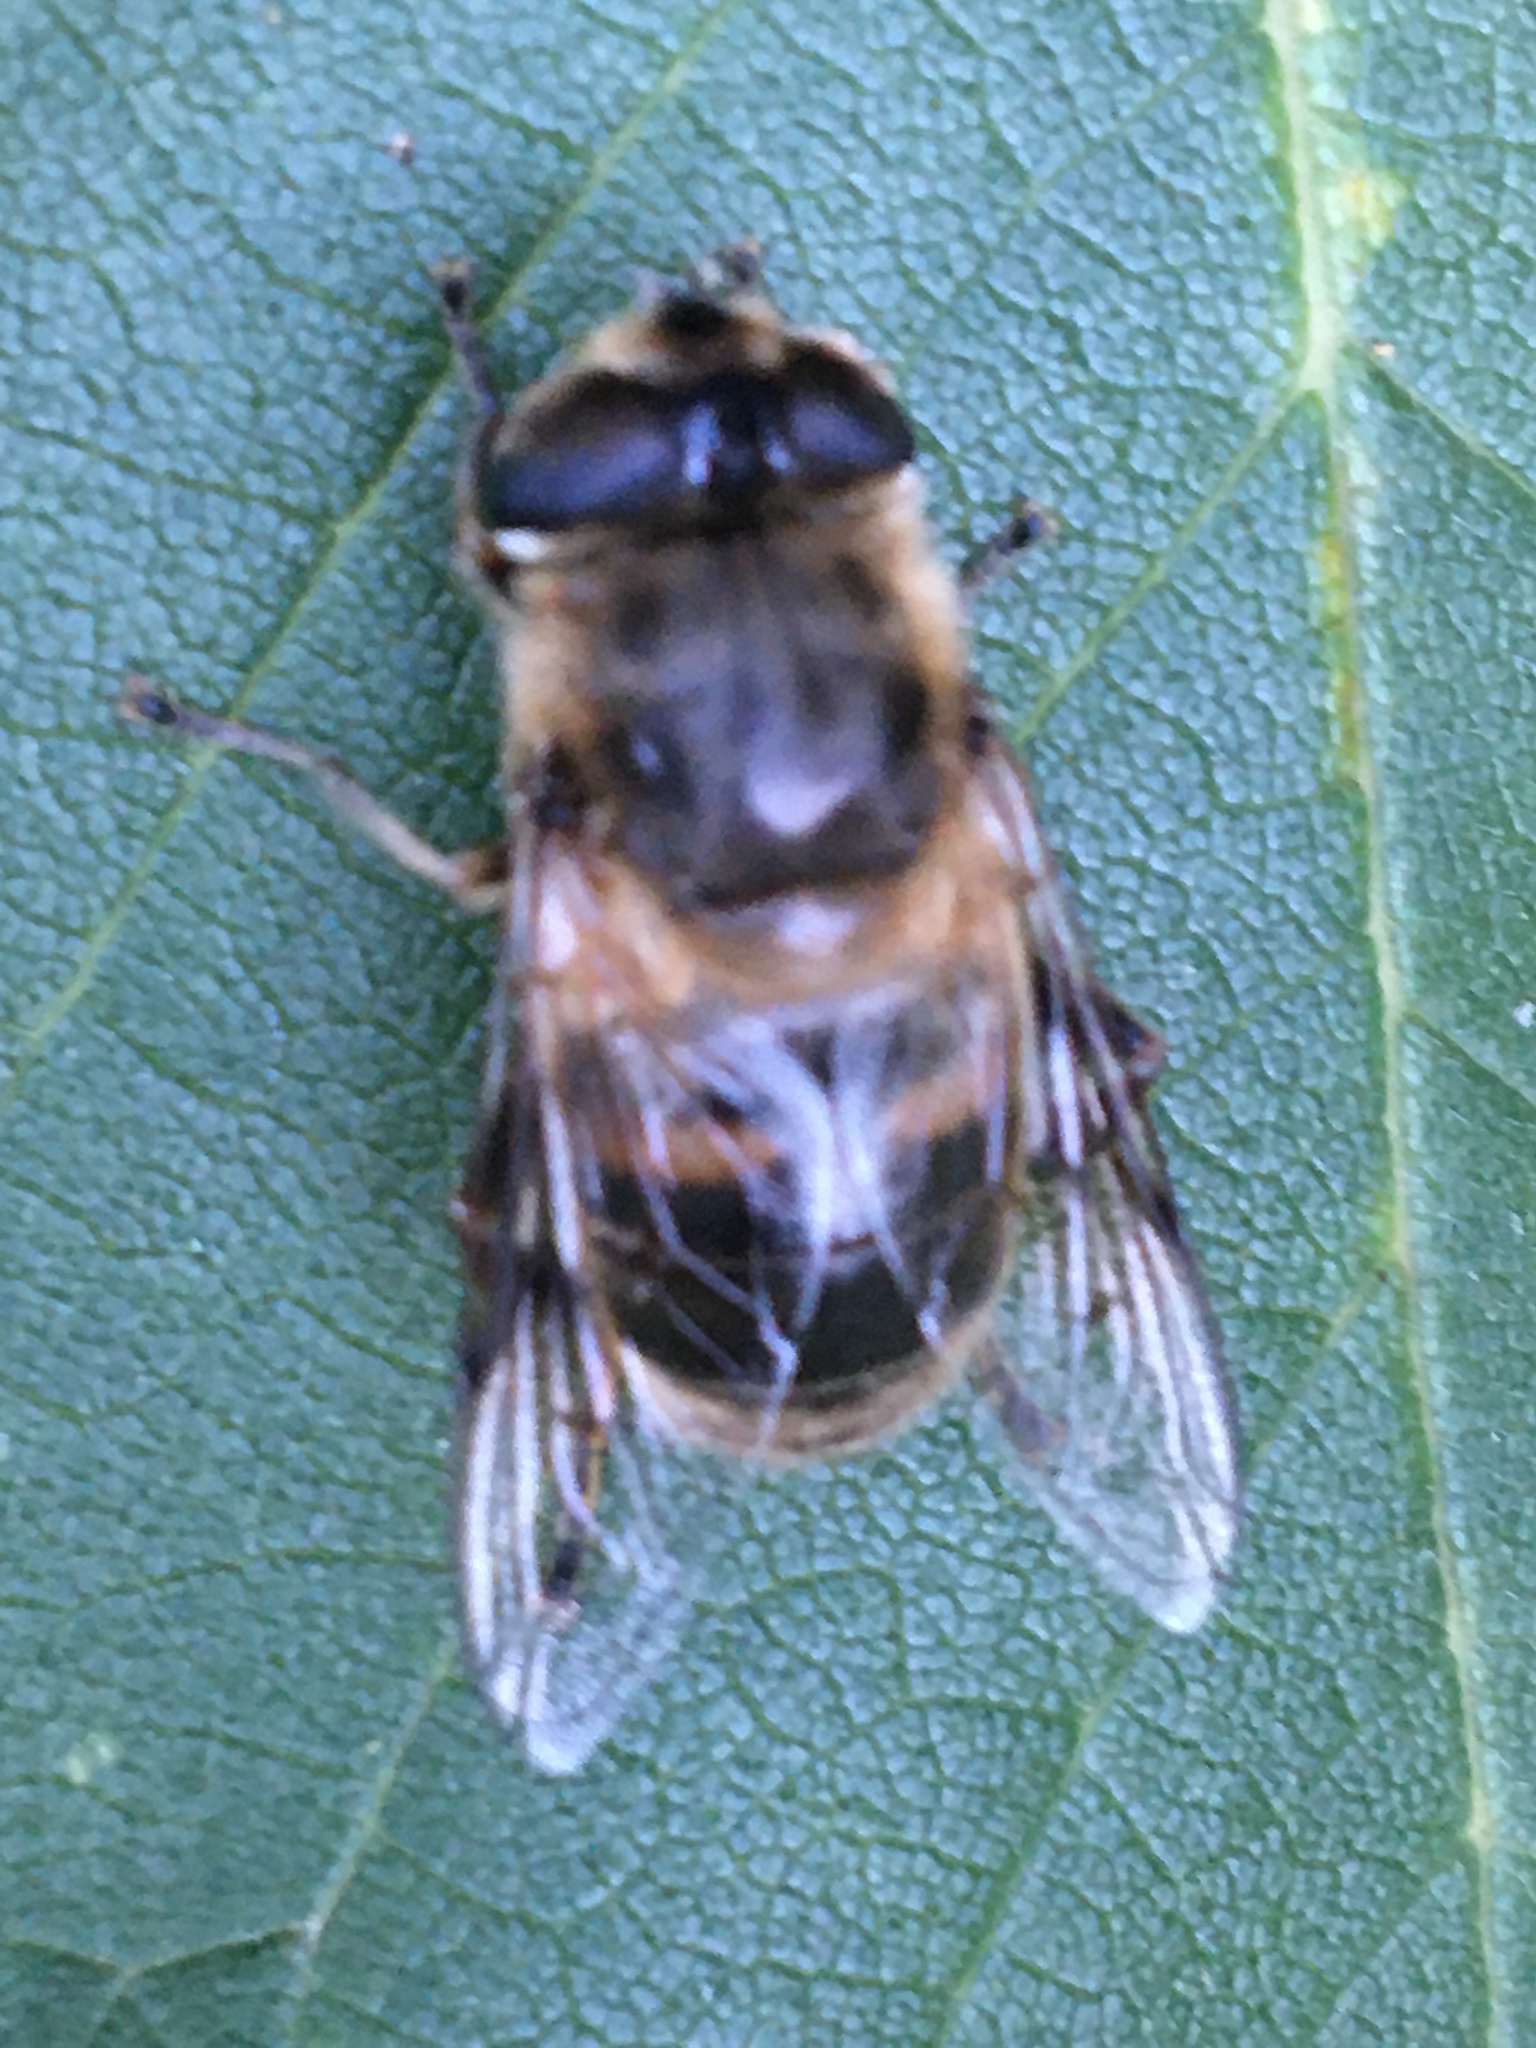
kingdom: Animalia
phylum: Arthropoda
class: Insecta
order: Diptera
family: Syrphidae
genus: Eristalis
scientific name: Eristalis tenax
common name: Drone fly
